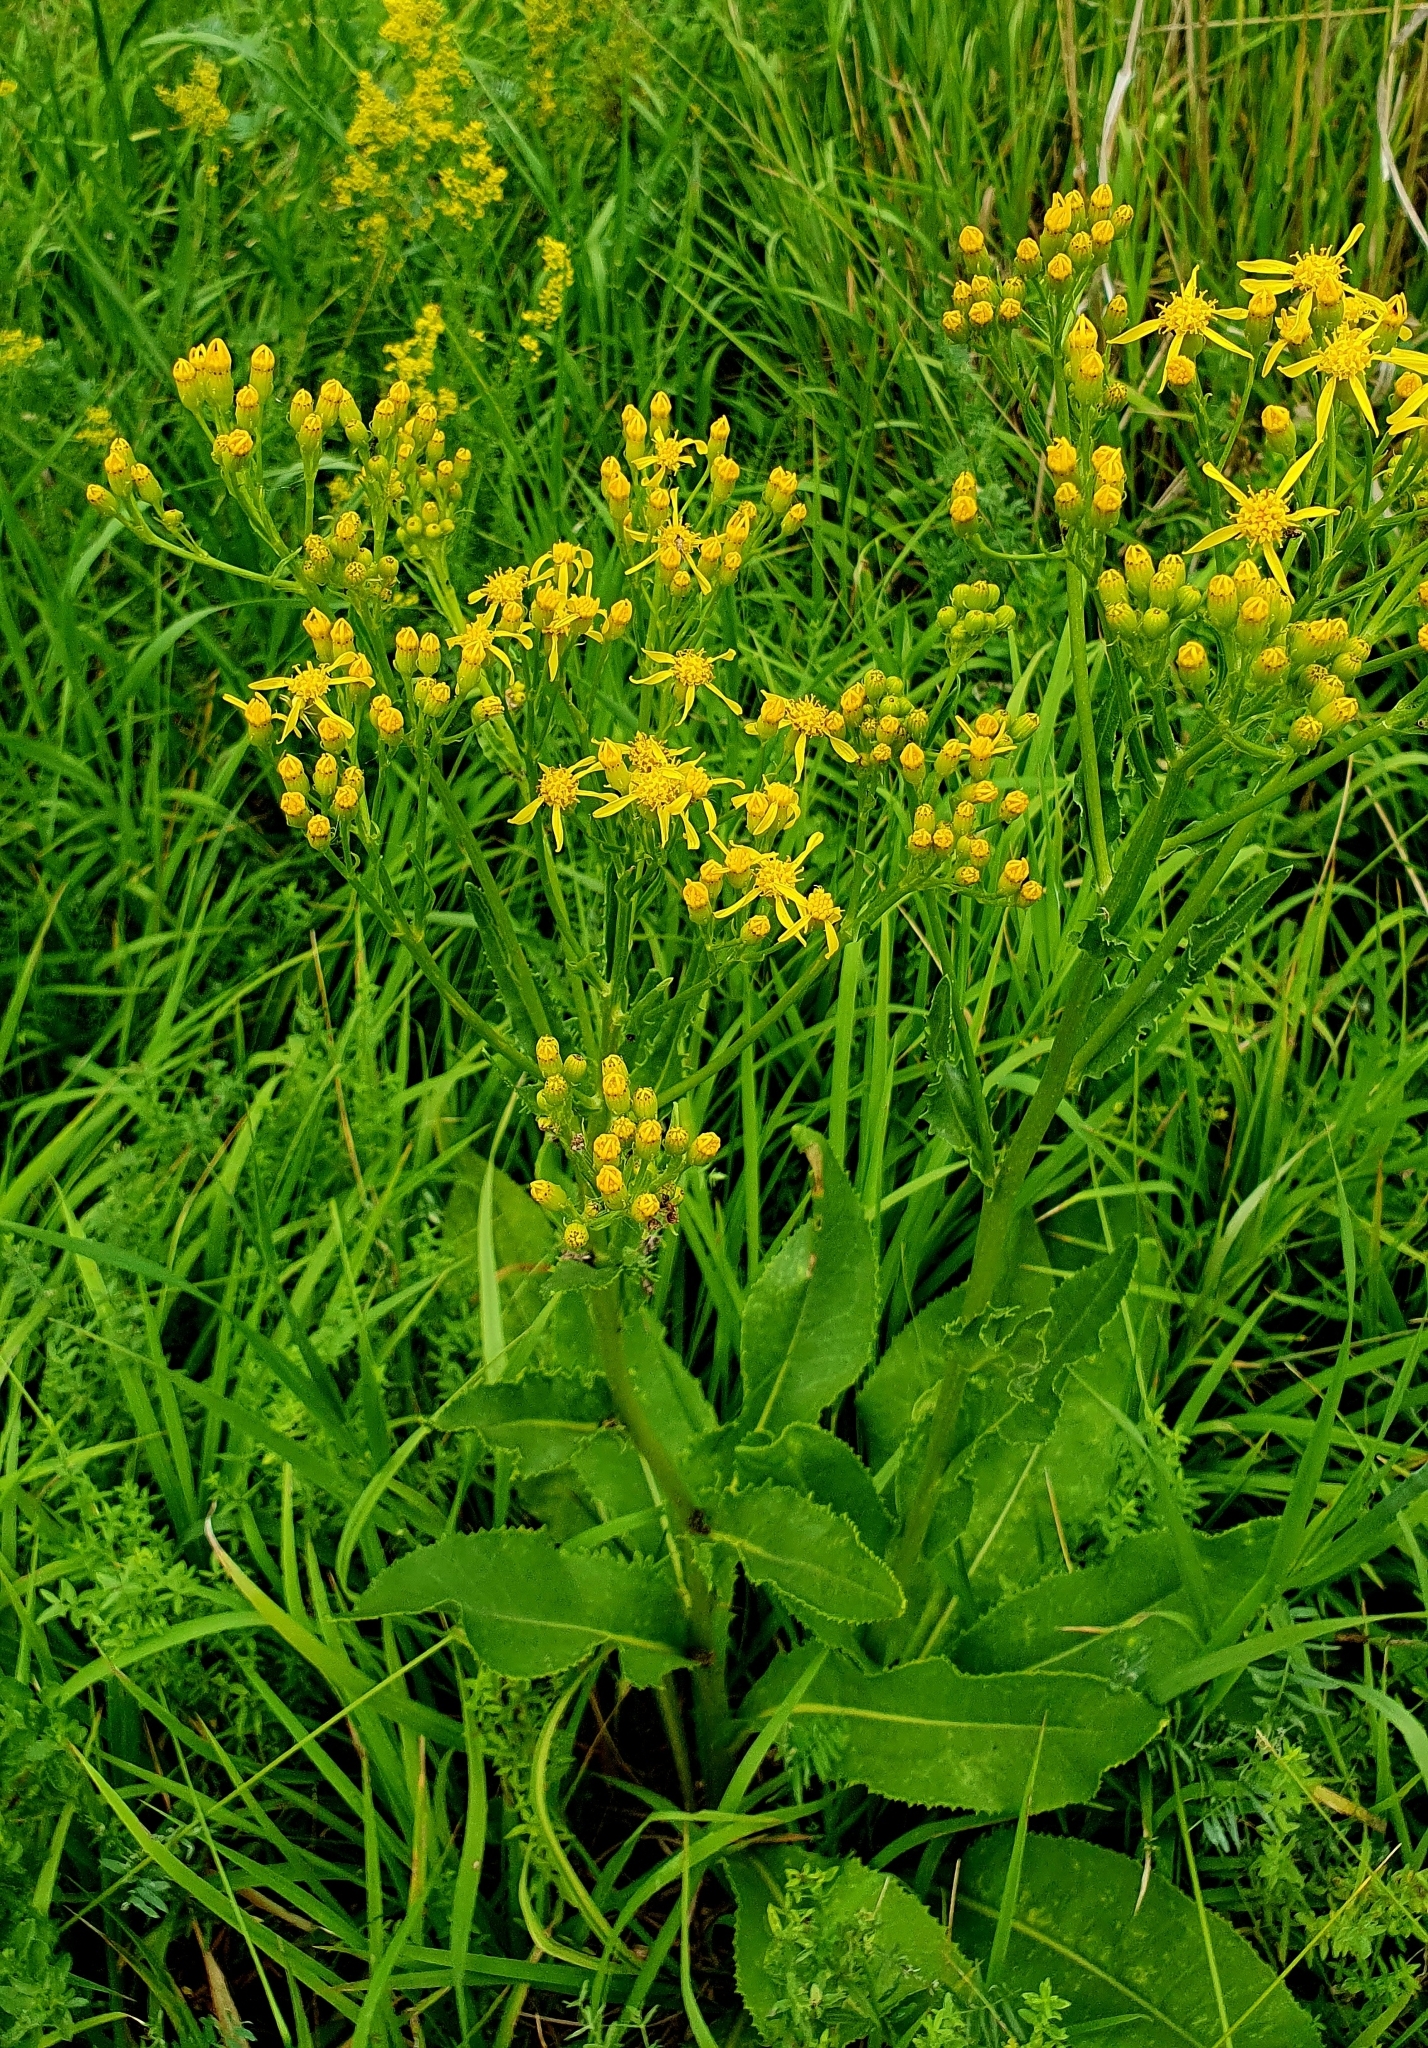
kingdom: Plantae
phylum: Tracheophyta
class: Magnoliopsida
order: Asterales
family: Asteraceae
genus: Senecio
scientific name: Senecio doria
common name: Golden ragwort
